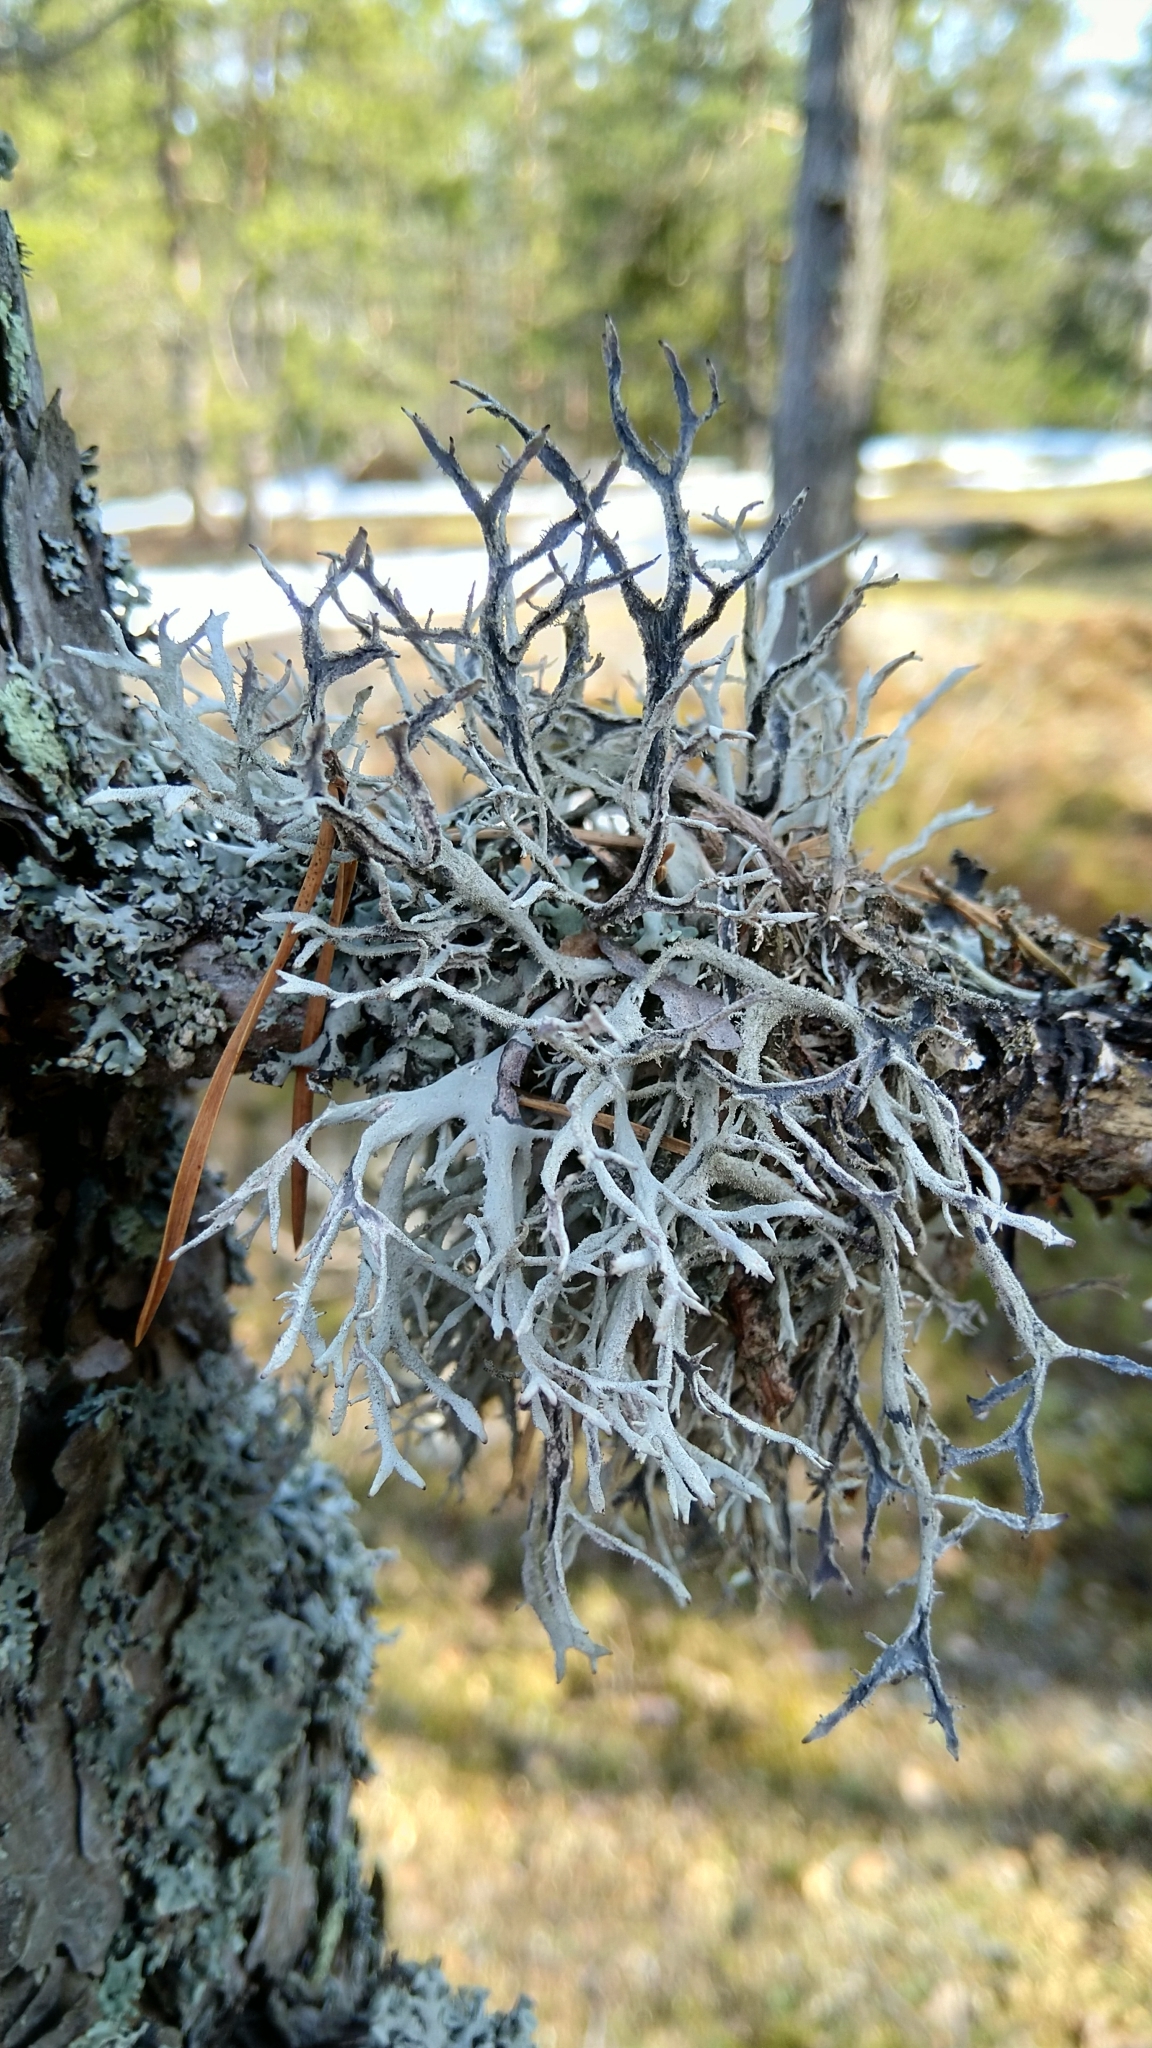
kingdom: Fungi
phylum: Ascomycota
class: Lecanoromycetes
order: Lecanorales
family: Parmeliaceae
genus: Pseudevernia
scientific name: Pseudevernia furfuracea
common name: Tree moss
